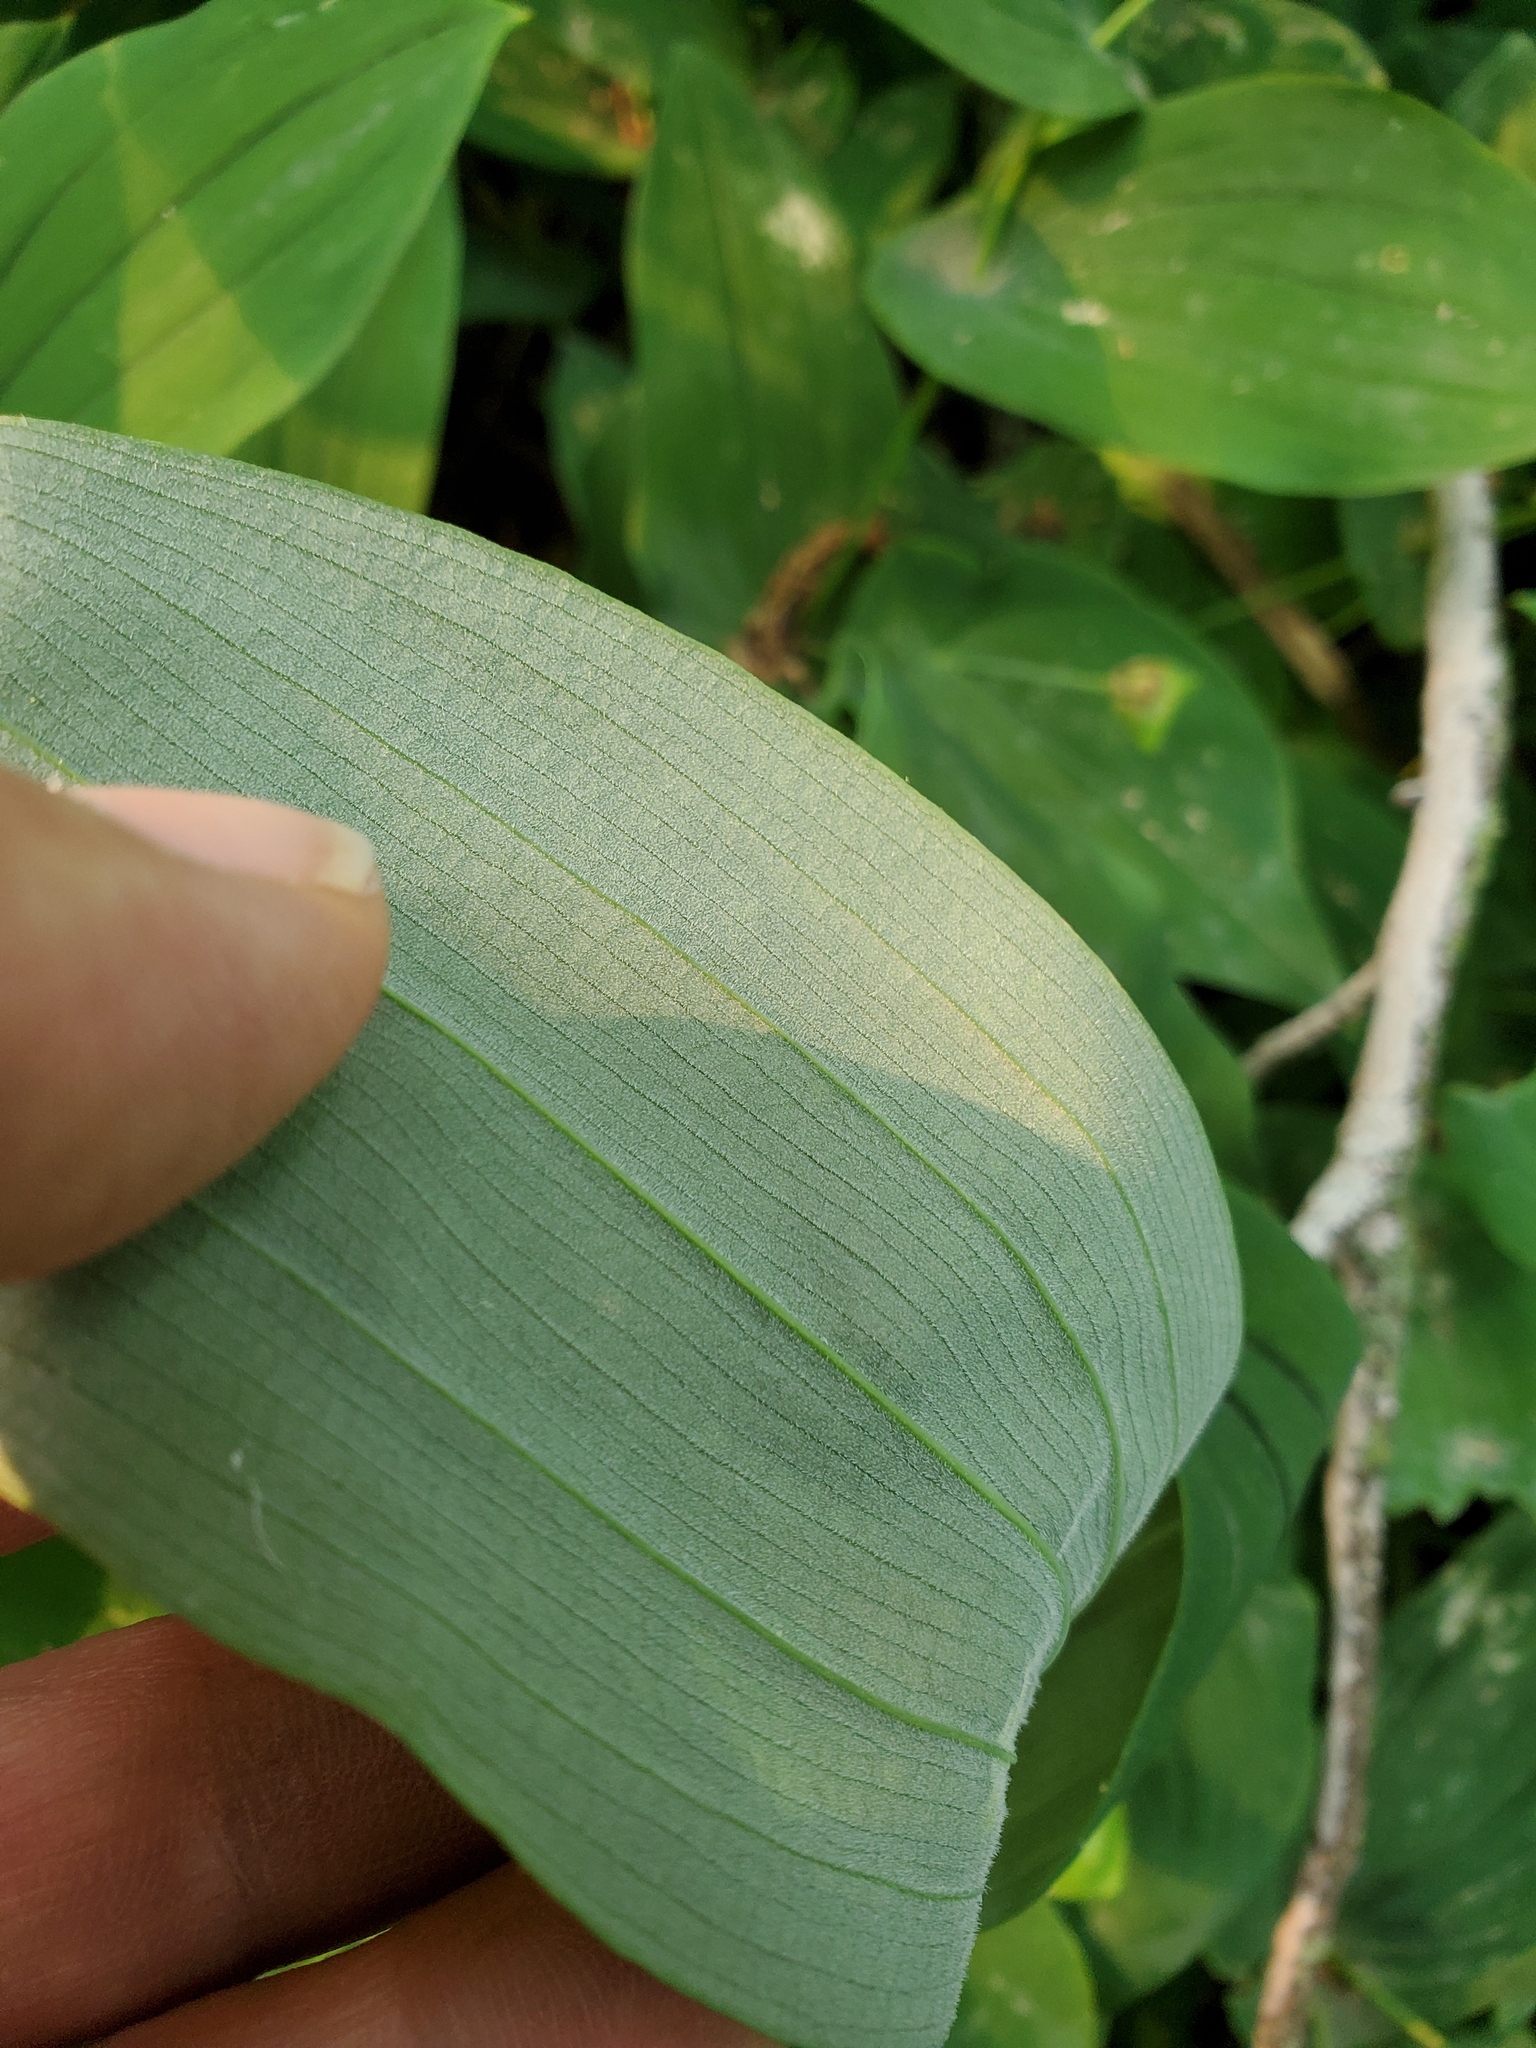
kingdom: Plantae
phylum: Tracheophyta
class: Liliopsida
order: Liliales
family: Colchicaceae
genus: Uvularia
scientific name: Uvularia grandiflora
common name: Bellwort
